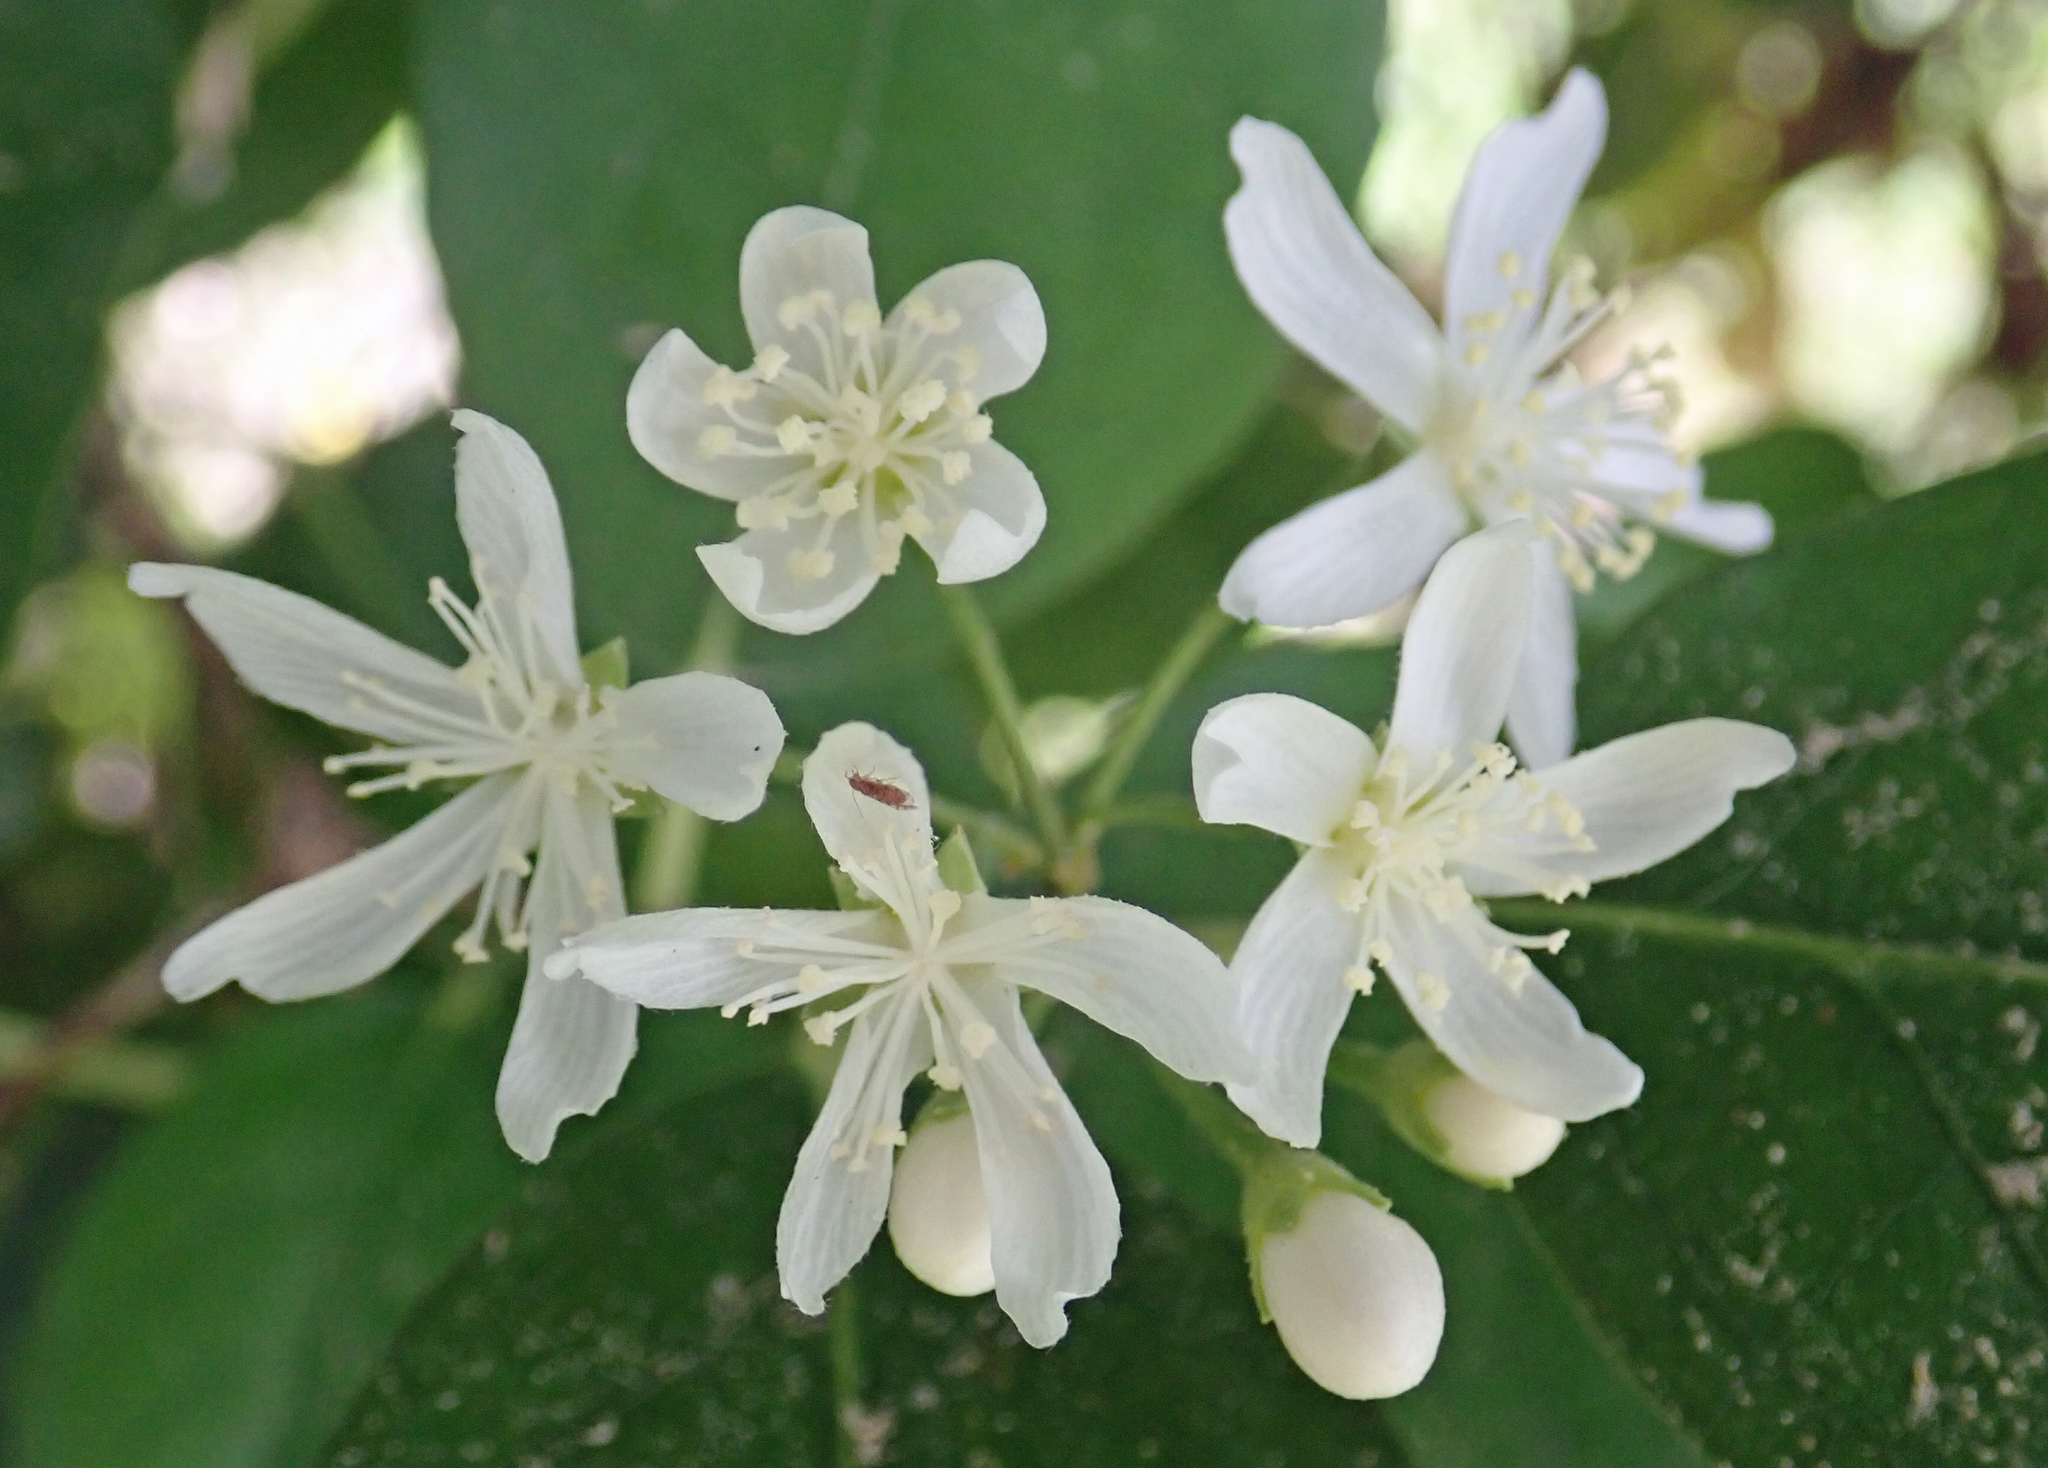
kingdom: Plantae
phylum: Tracheophyta
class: Magnoliopsida
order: Malvales
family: Malvaceae
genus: Hoheria
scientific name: Hoheria equitum
